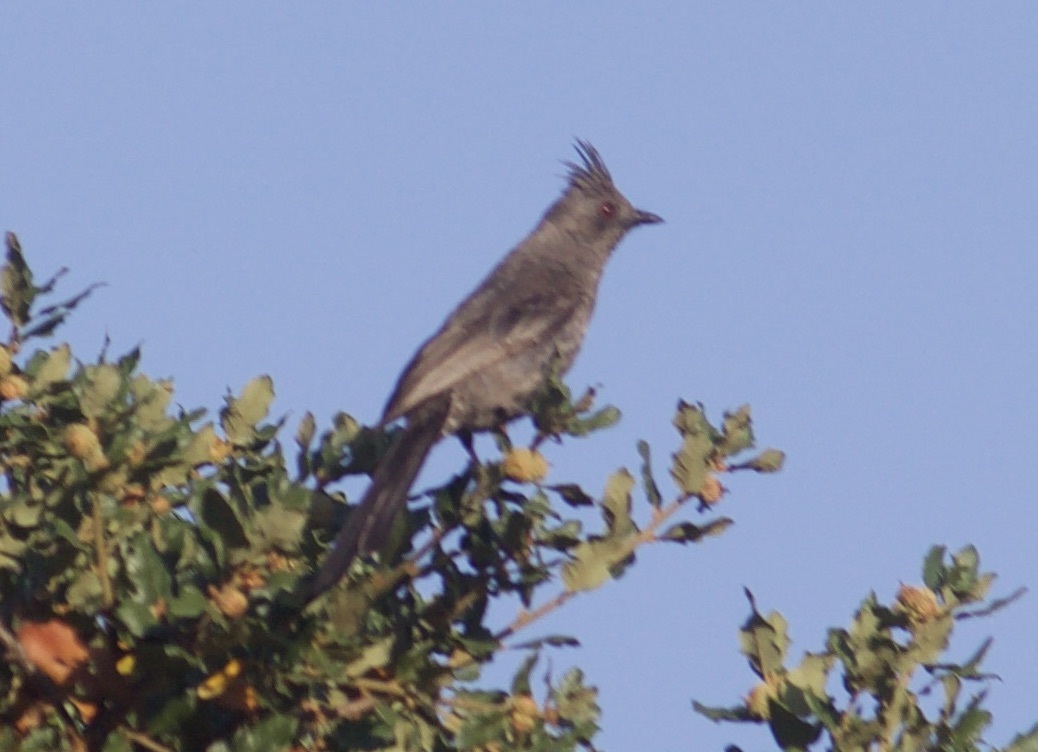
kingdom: Animalia
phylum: Chordata
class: Aves
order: Passeriformes
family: Ptilogonatidae
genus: Phainopepla
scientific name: Phainopepla nitens
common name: Phainopepla
